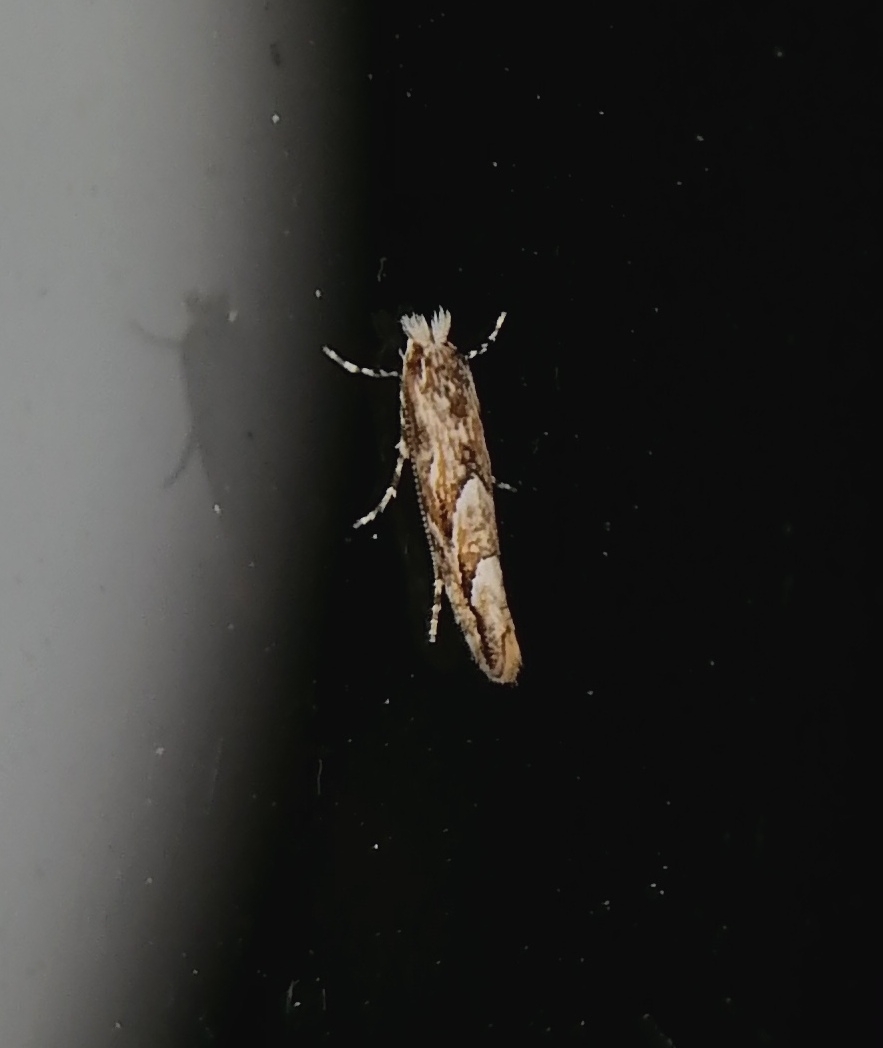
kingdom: Animalia
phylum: Arthropoda
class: Insecta
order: Lepidoptera
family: Gracillariidae
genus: Phyllonorycter
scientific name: Phyllonorycter issikii
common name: Linden midget
